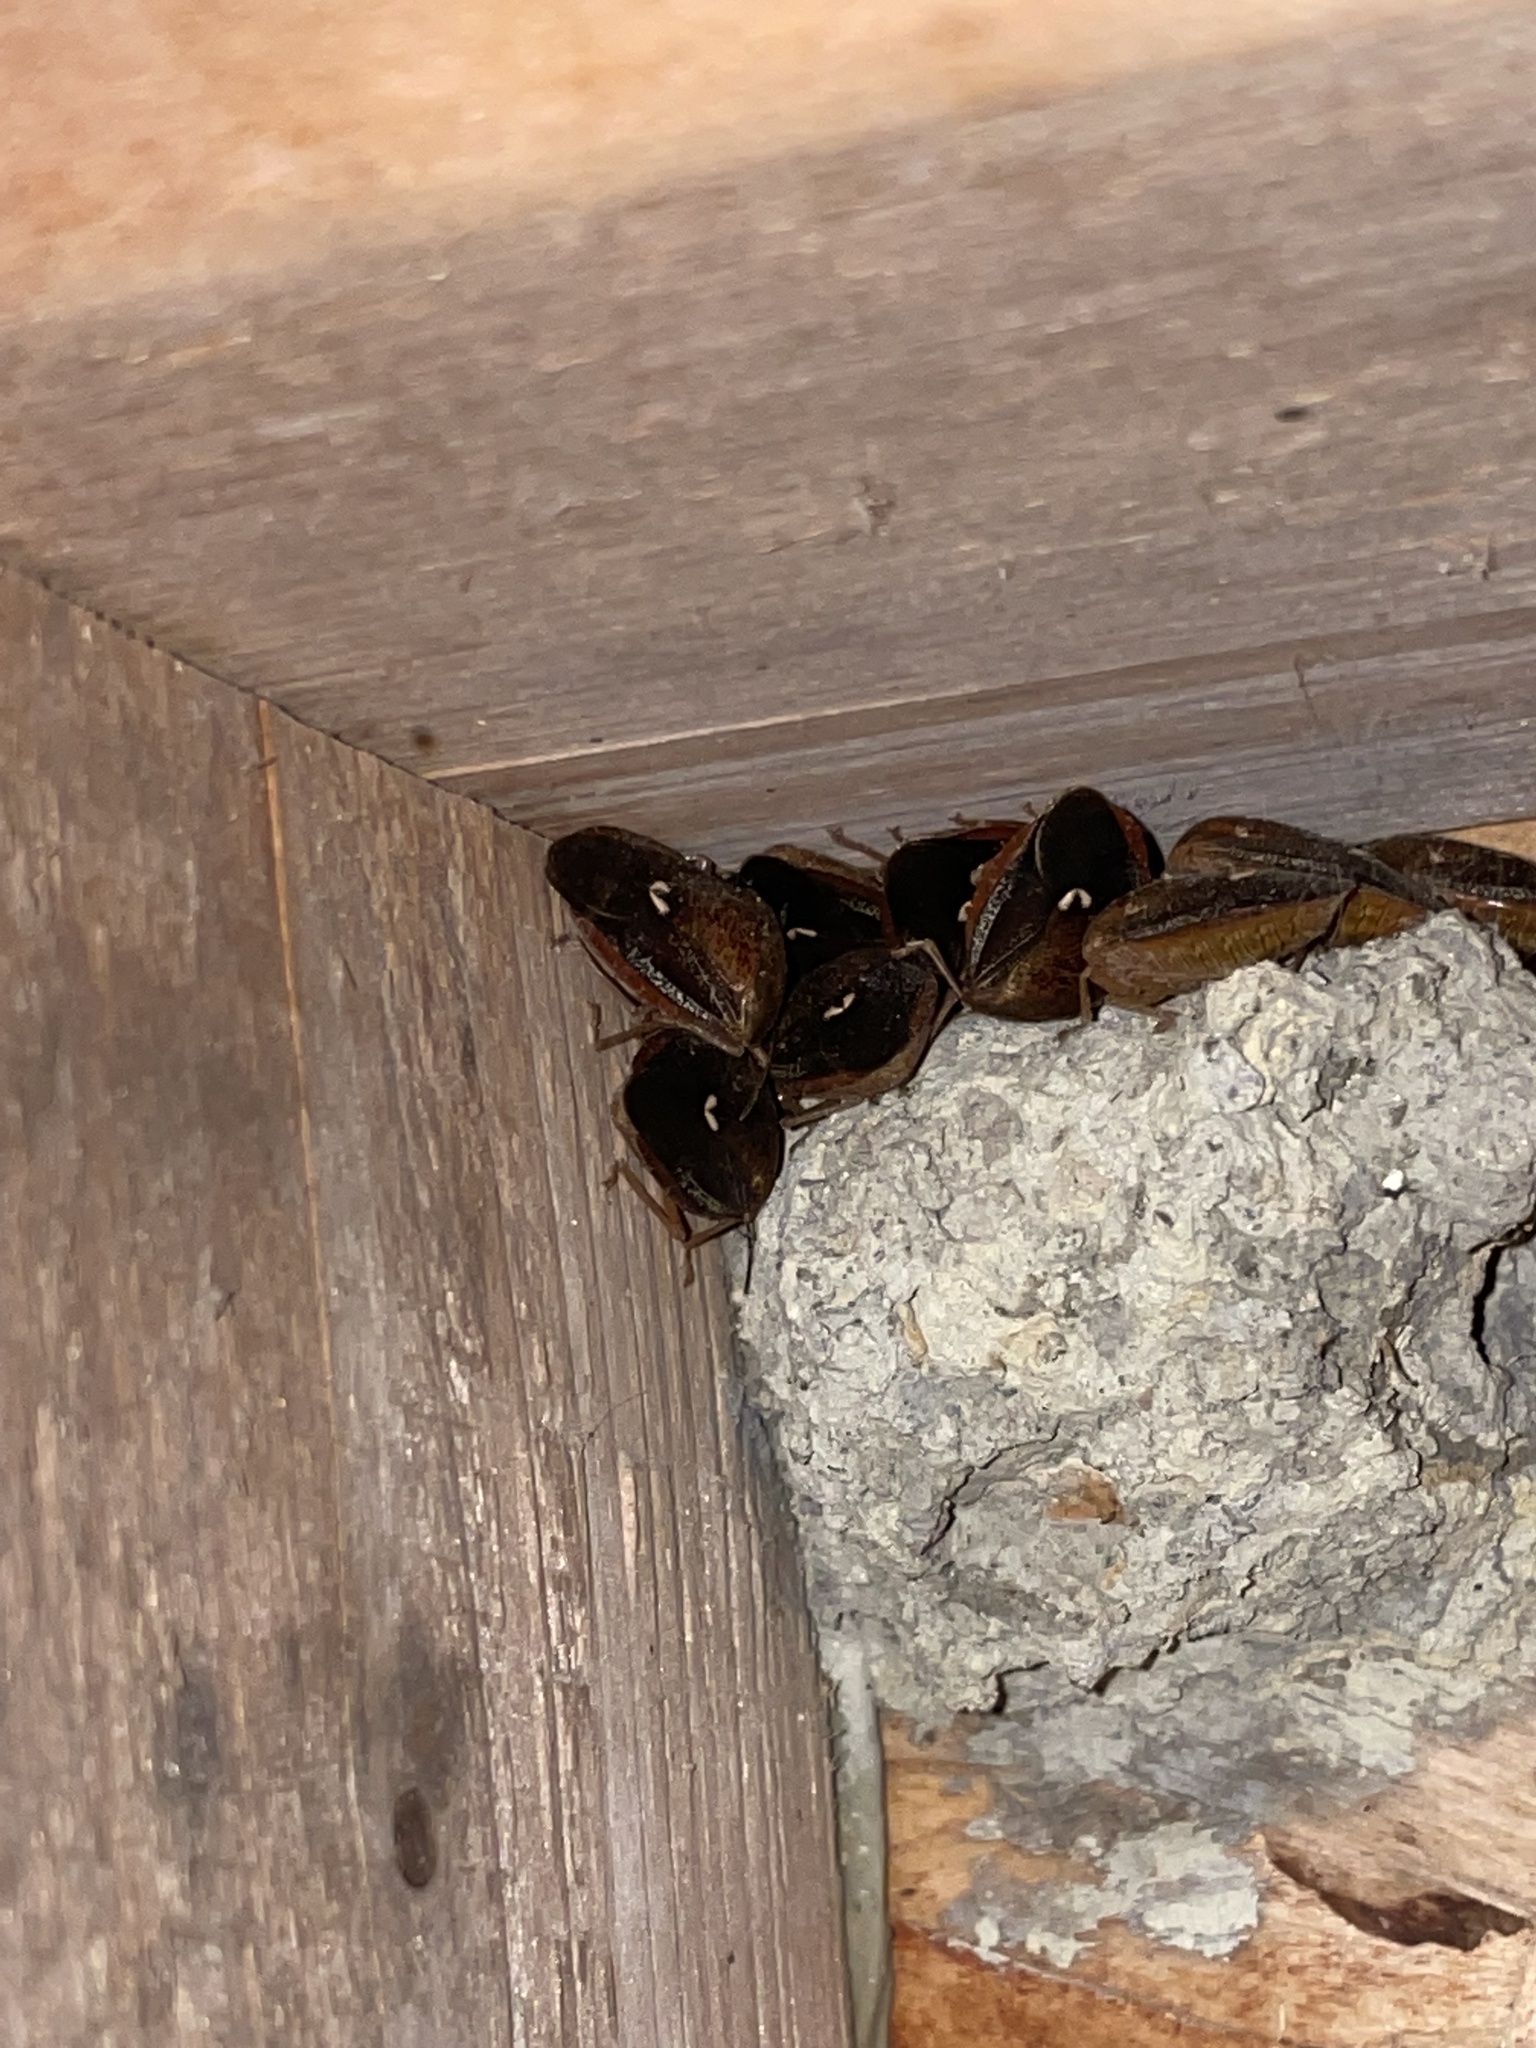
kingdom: Animalia
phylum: Arthropoda
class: Insecta
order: Hemiptera
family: Pentatomidae
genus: Edessa
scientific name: Edessa bifida
